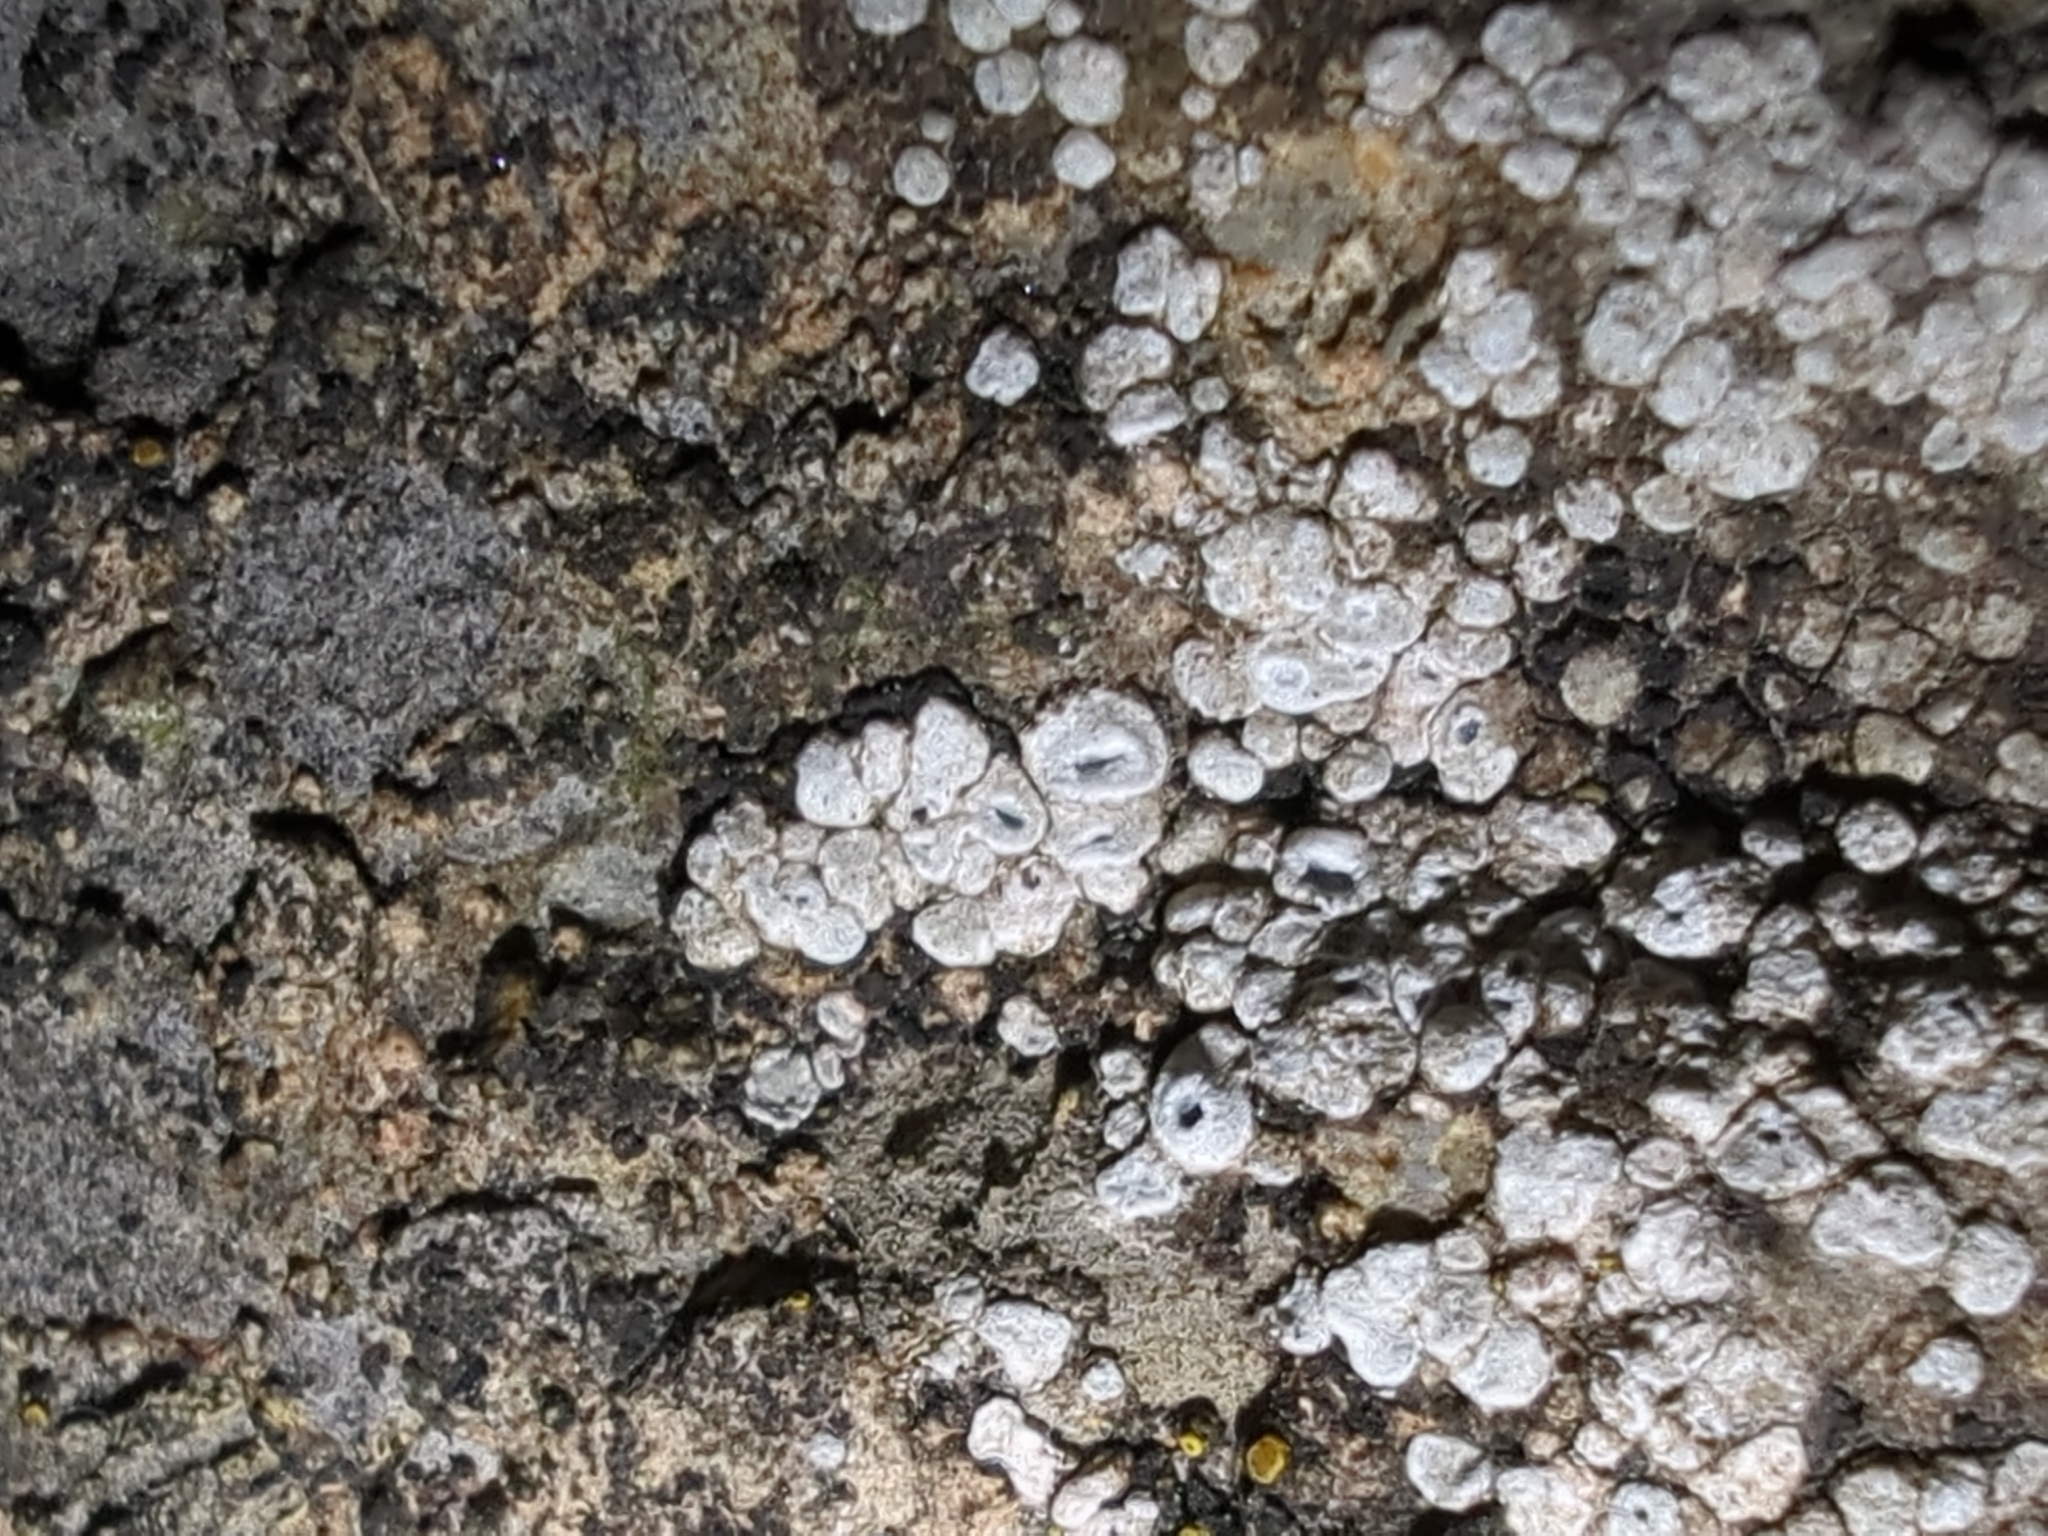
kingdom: Fungi
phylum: Ascomycota
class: Lecanoromycetes
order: Pertusariales
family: Megasporaceae
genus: Circinaria
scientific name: Circinaria contorta
